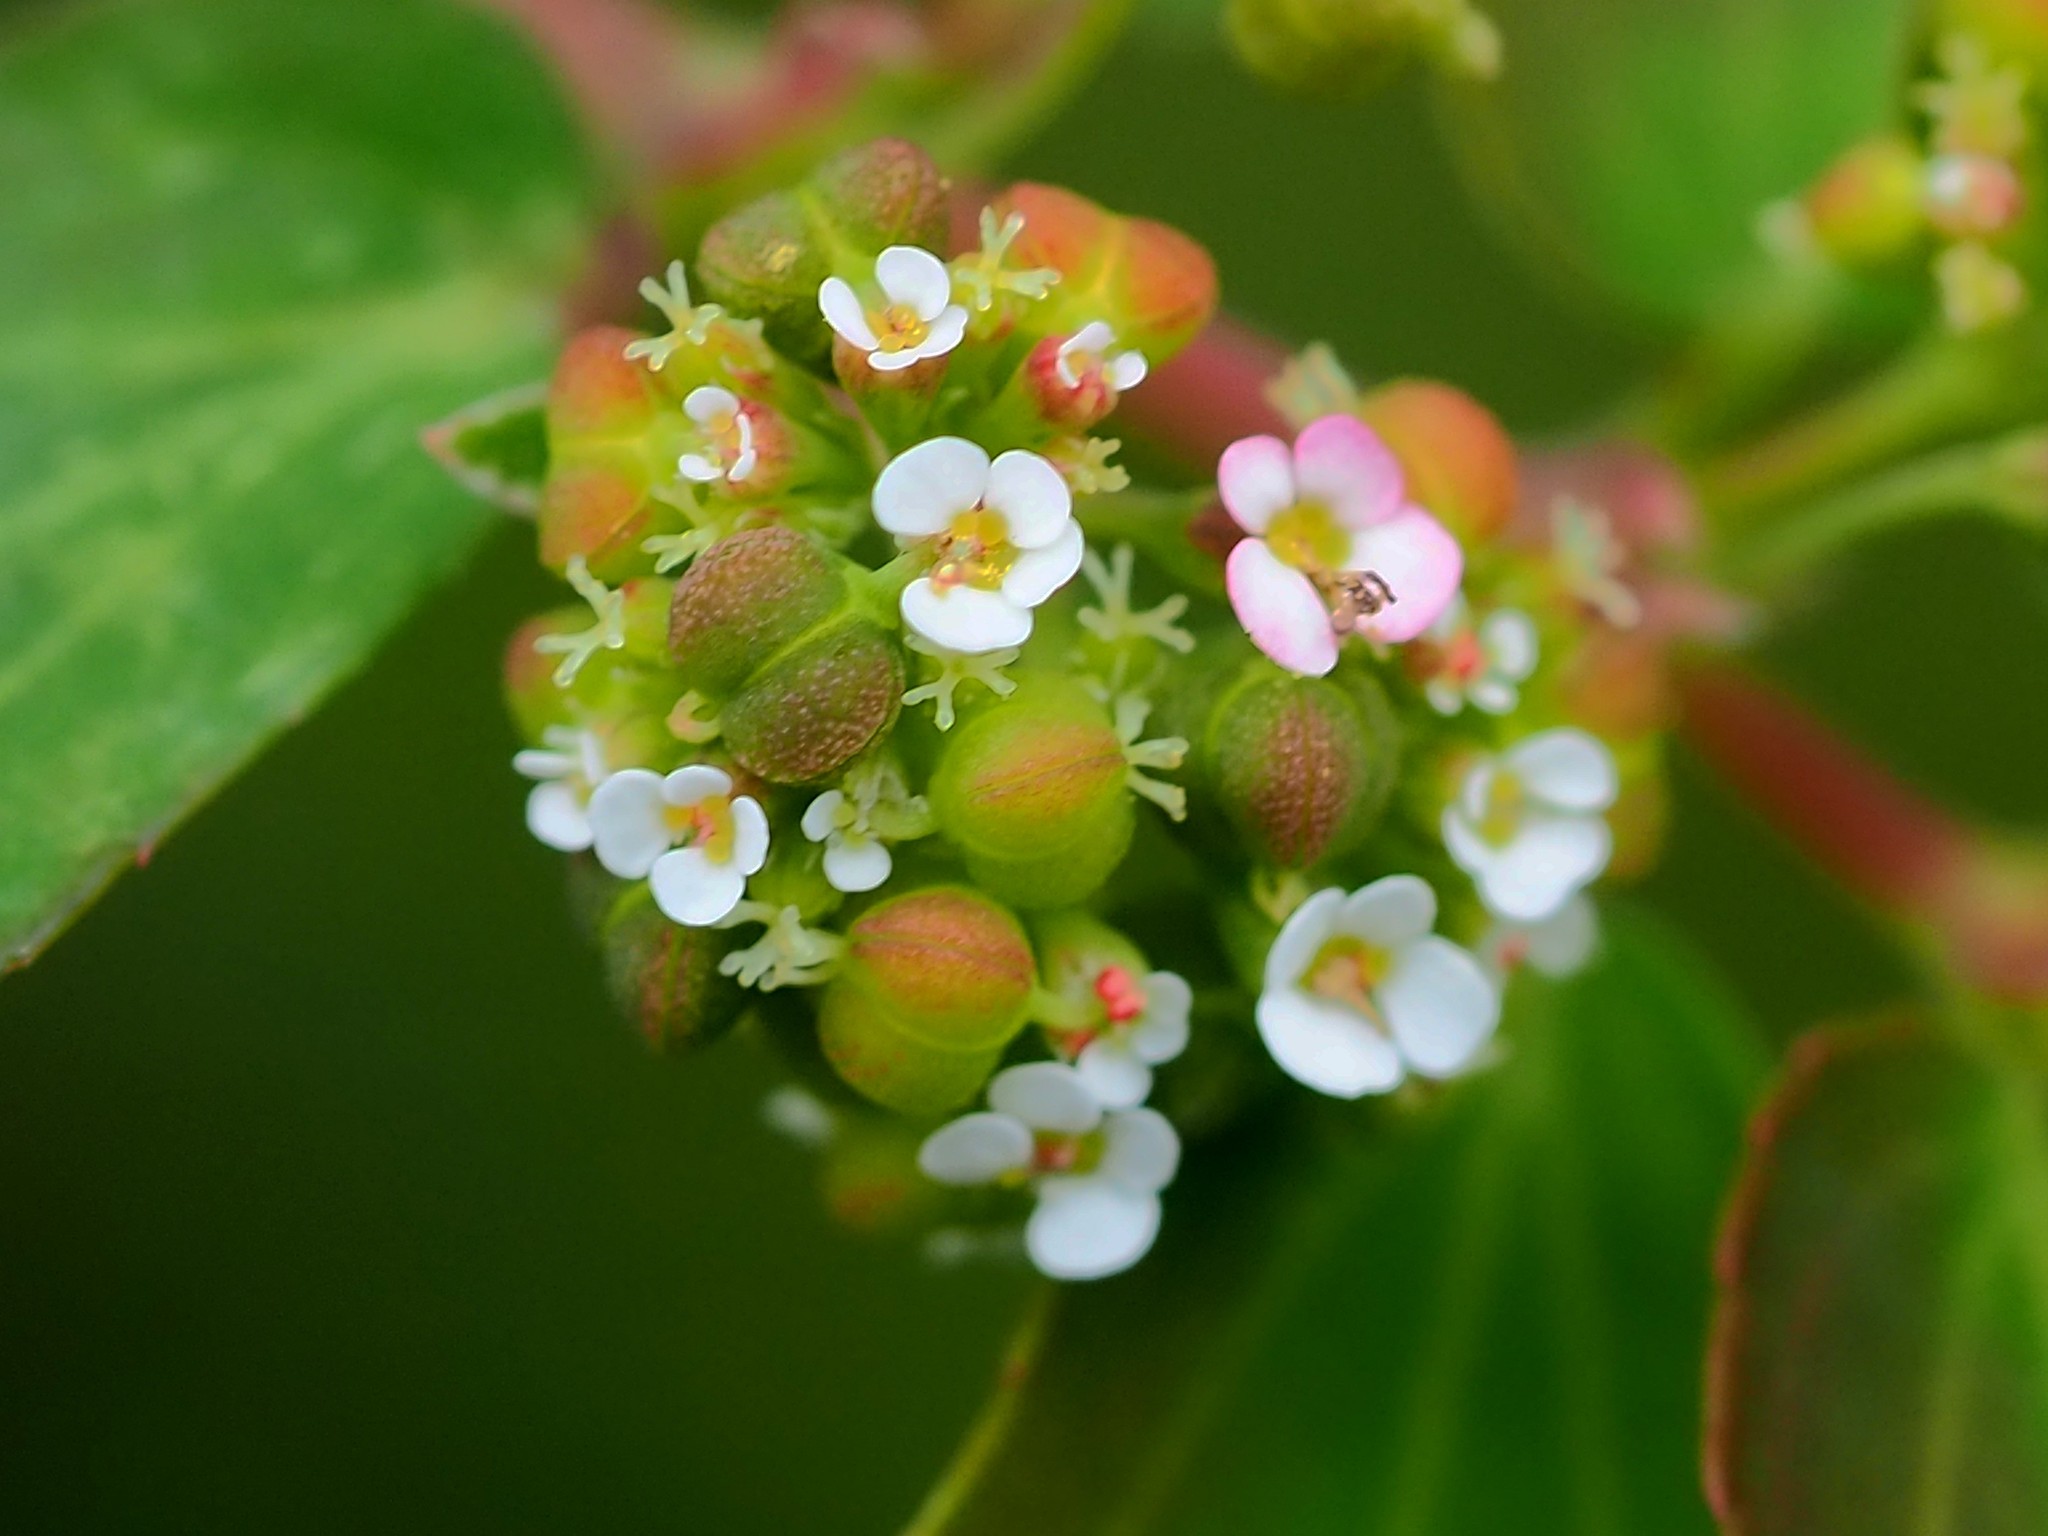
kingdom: Plantae
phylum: Tracheophyta
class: Magnoliopsida
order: Malpighiales
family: Euphorbiaceae
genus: Euphorbia
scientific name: Euphorbia hypericifolia
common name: Graceful sandmat
